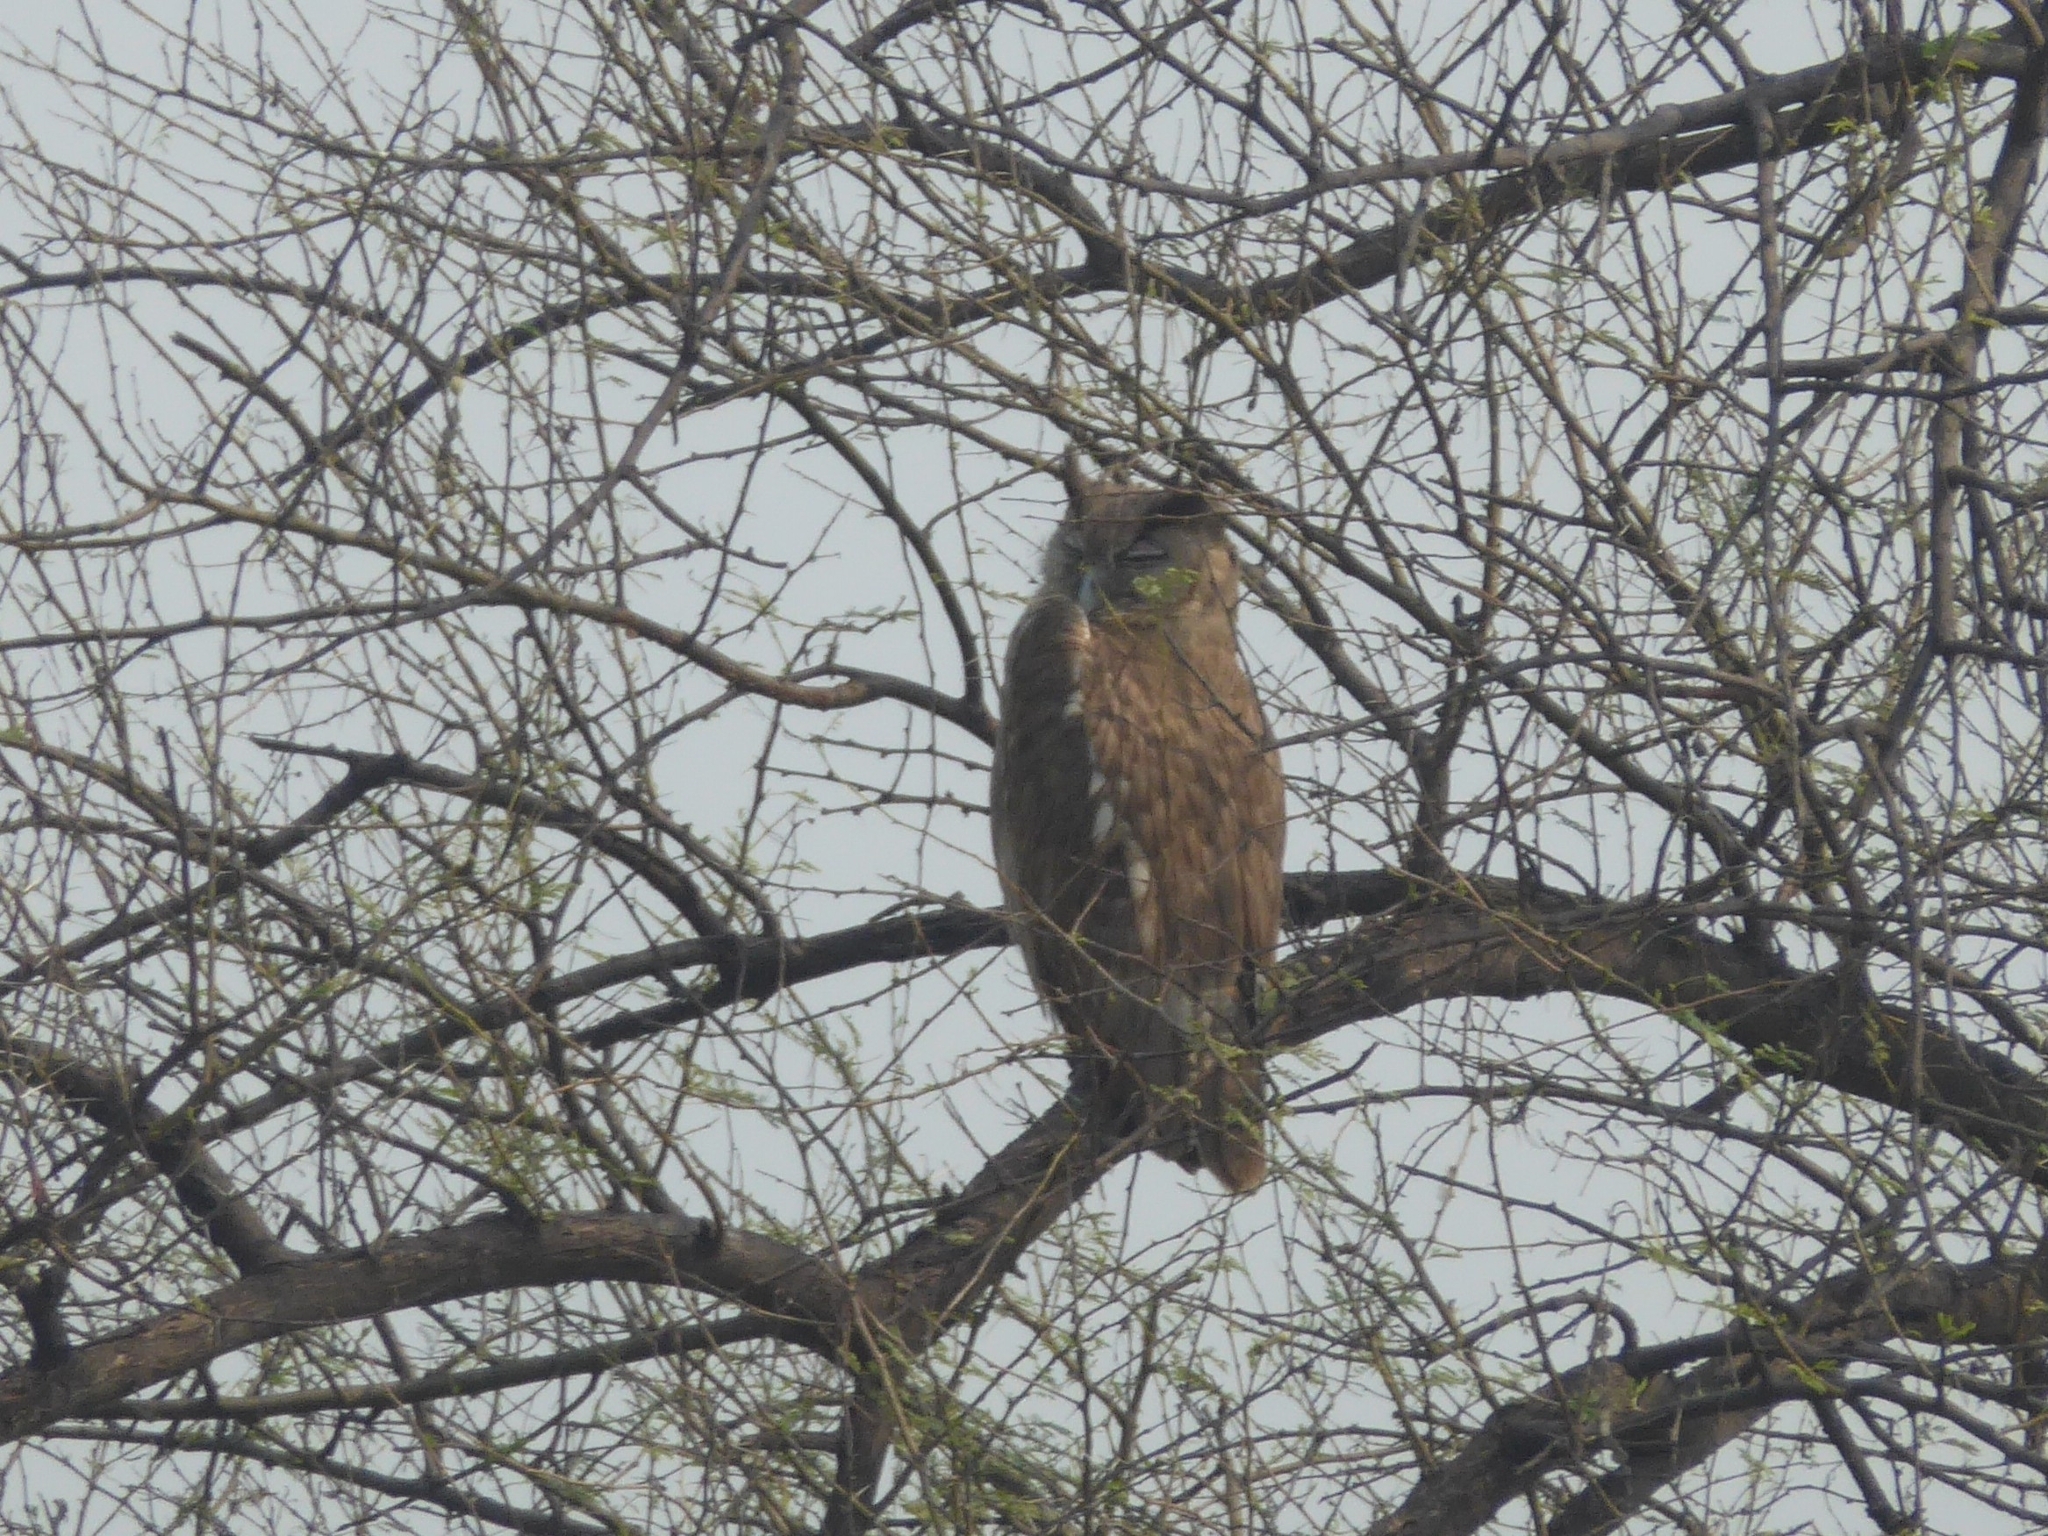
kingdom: Animalia
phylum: Chordata
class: Aves
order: Strigiformes
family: Strigidae
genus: Ketupa
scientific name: Ketupa coromanda
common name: Dusky eagle-owl
